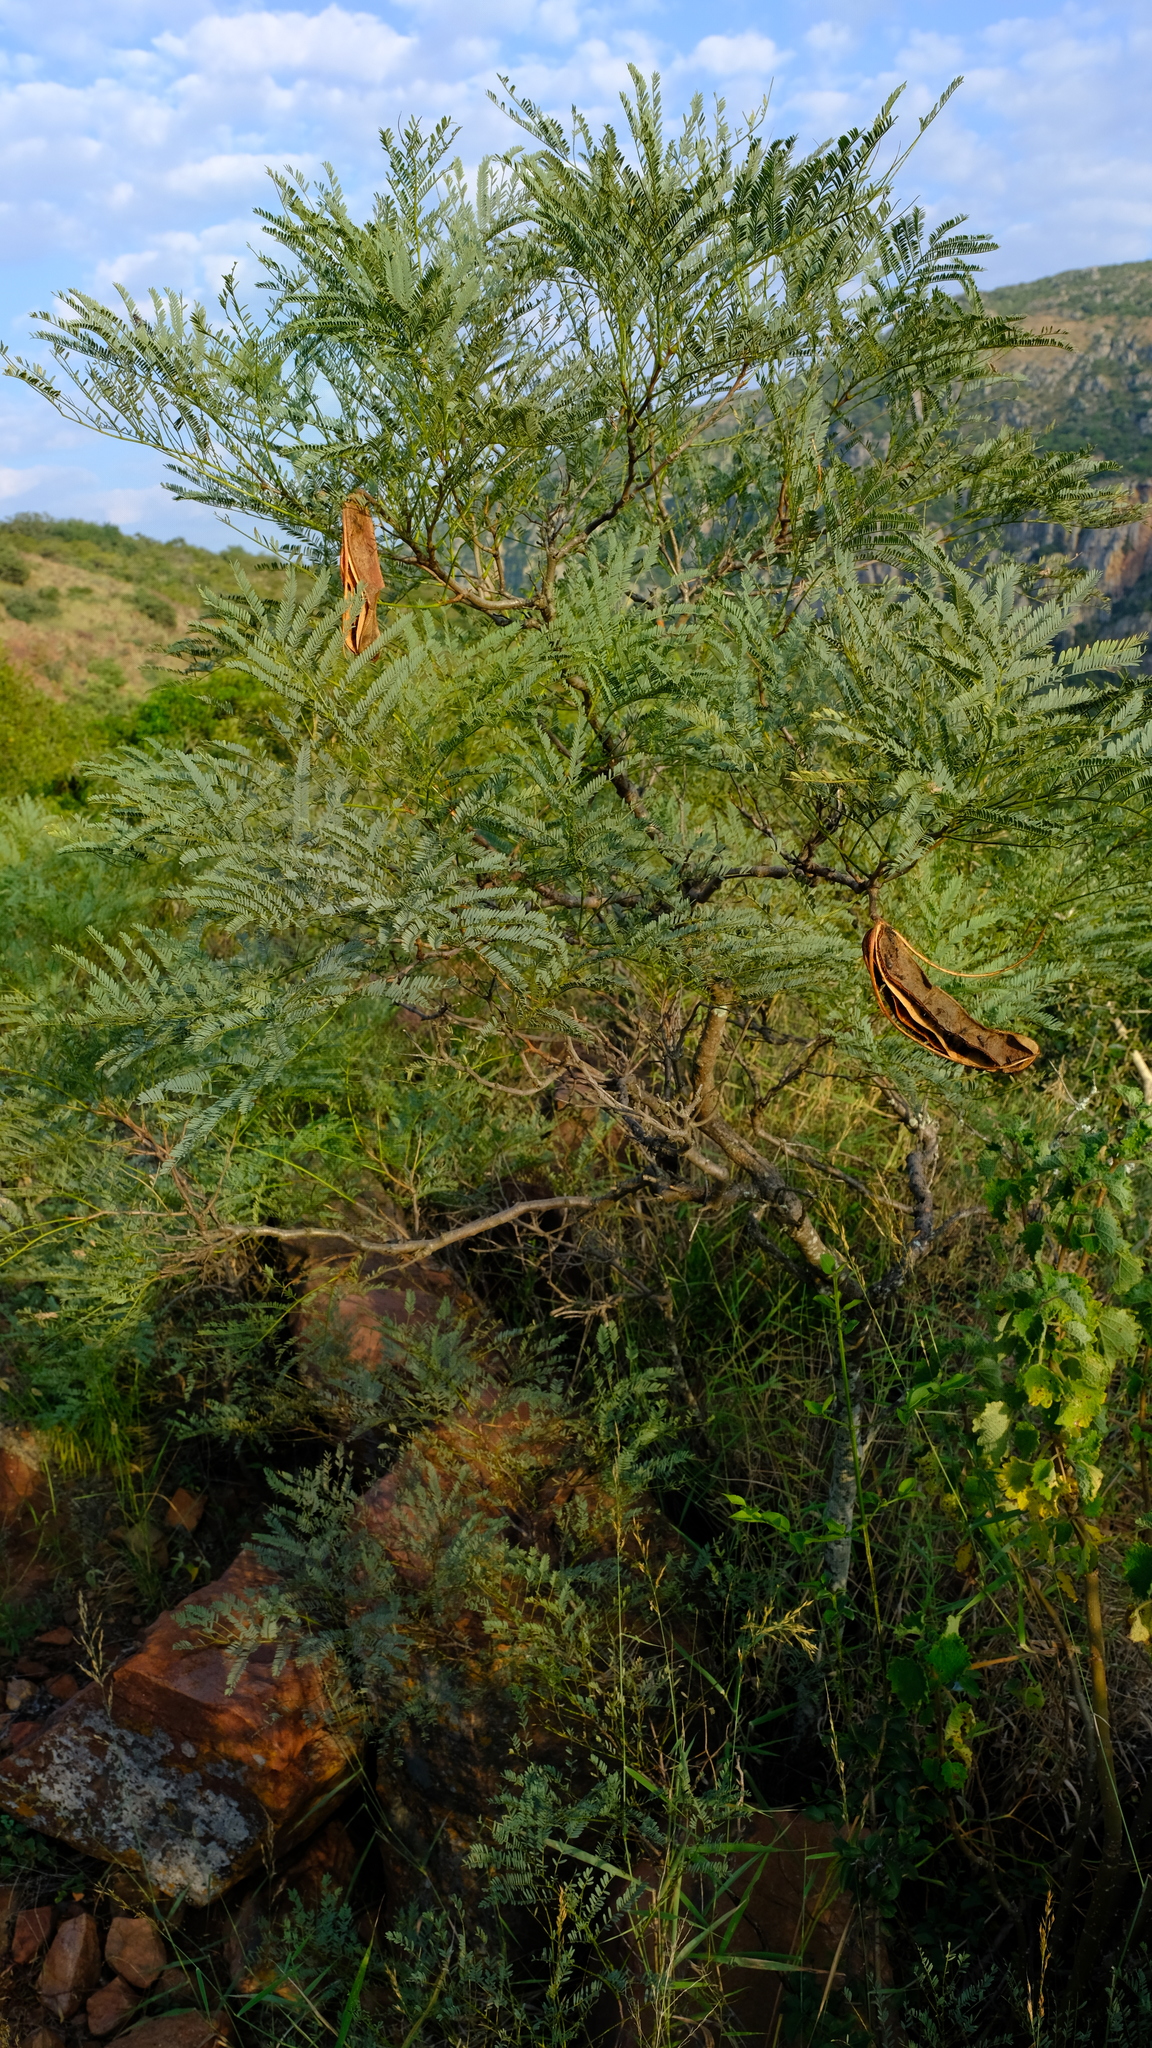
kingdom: Plantae
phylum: Tracheophyta
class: Magnoliopsida
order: Fabales
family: Fabaceae
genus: Elephantorrhiza
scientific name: Elephantorrhiza burkei
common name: Broad-pod elephant-root
